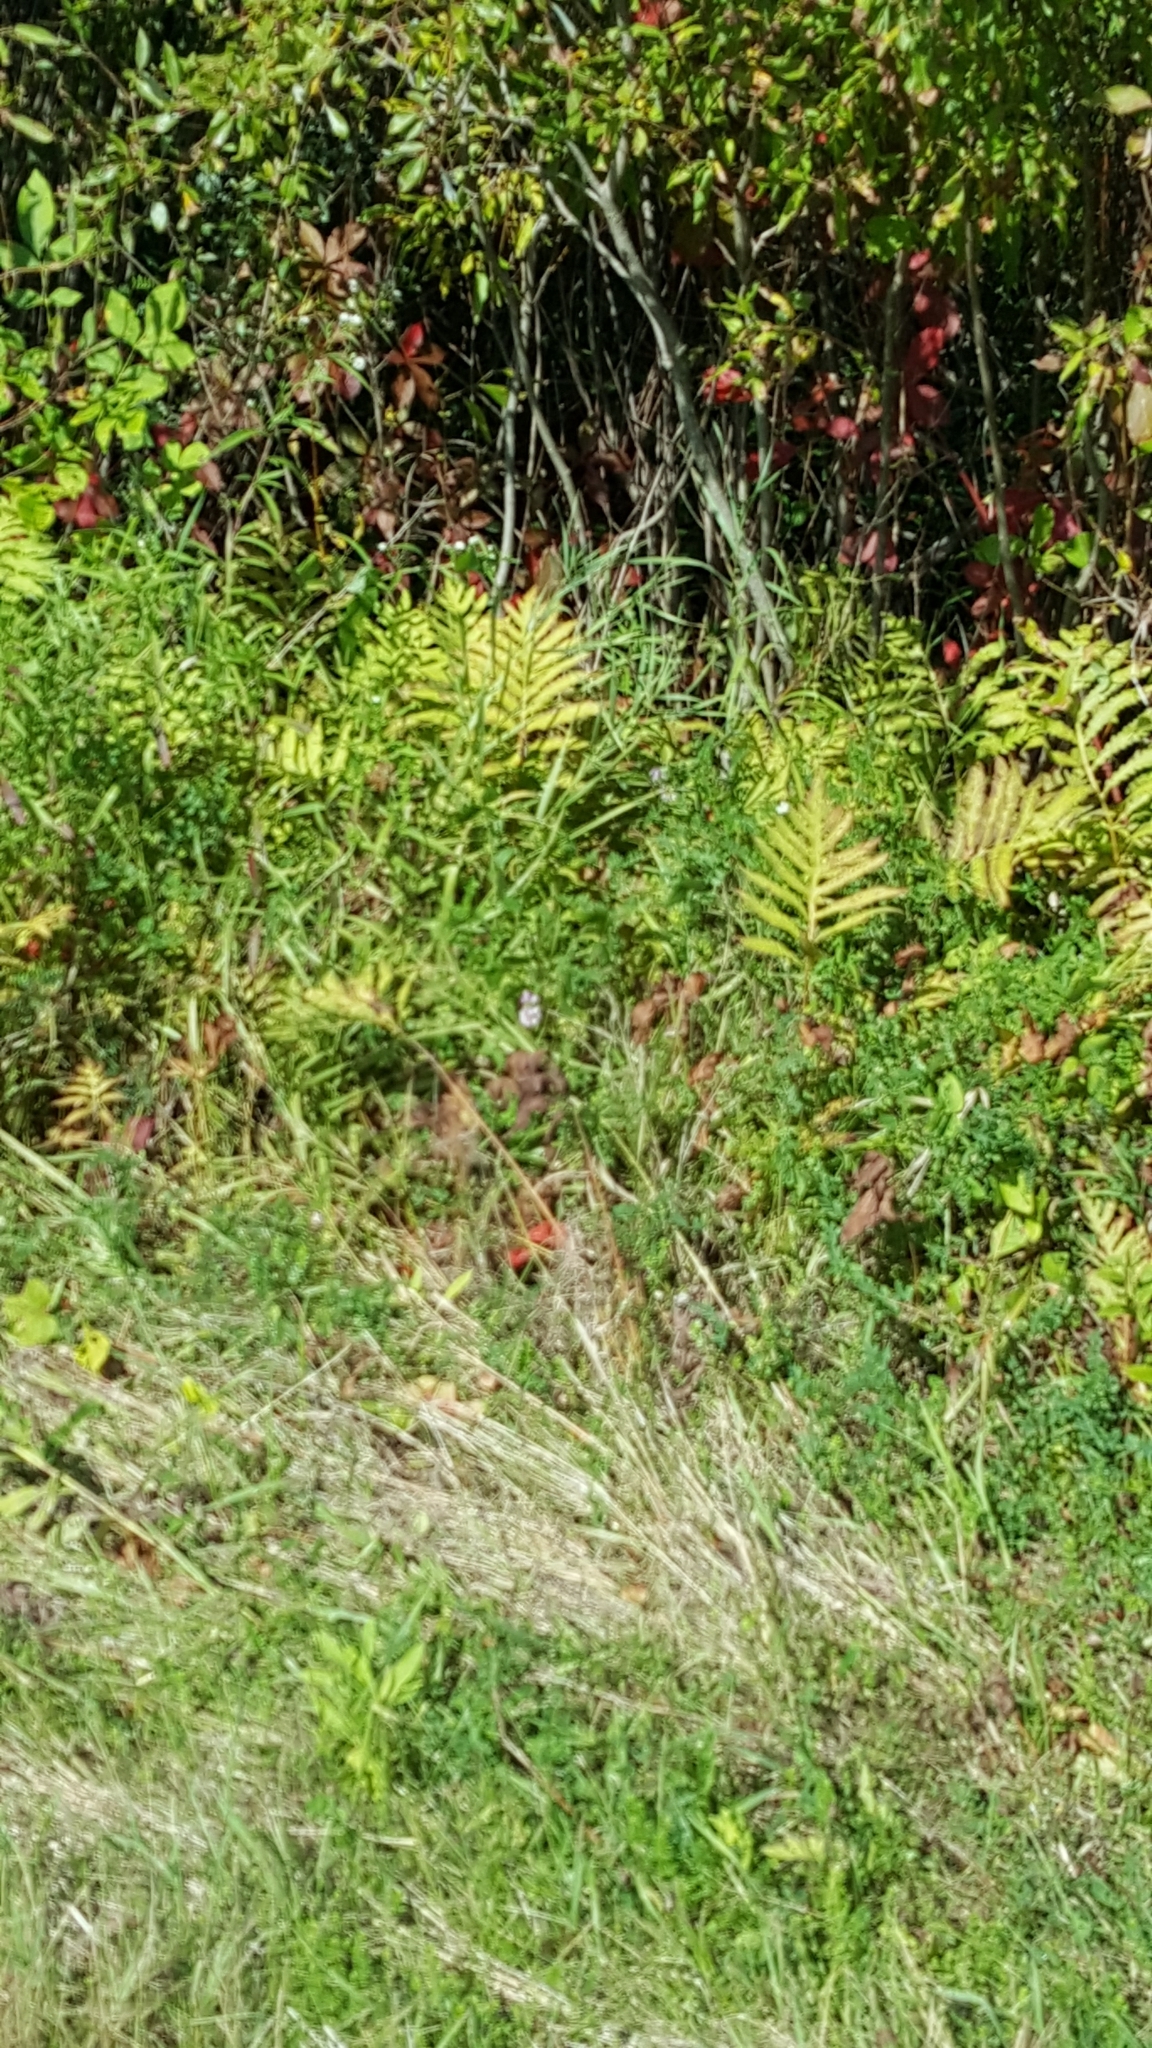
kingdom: Plantae
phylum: Tracheophyta
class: Polypodiopsida
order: Polypodiales
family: Onocleaceae
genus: Onoclea
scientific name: Onoclea sensibilis
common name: Sensitive fern
